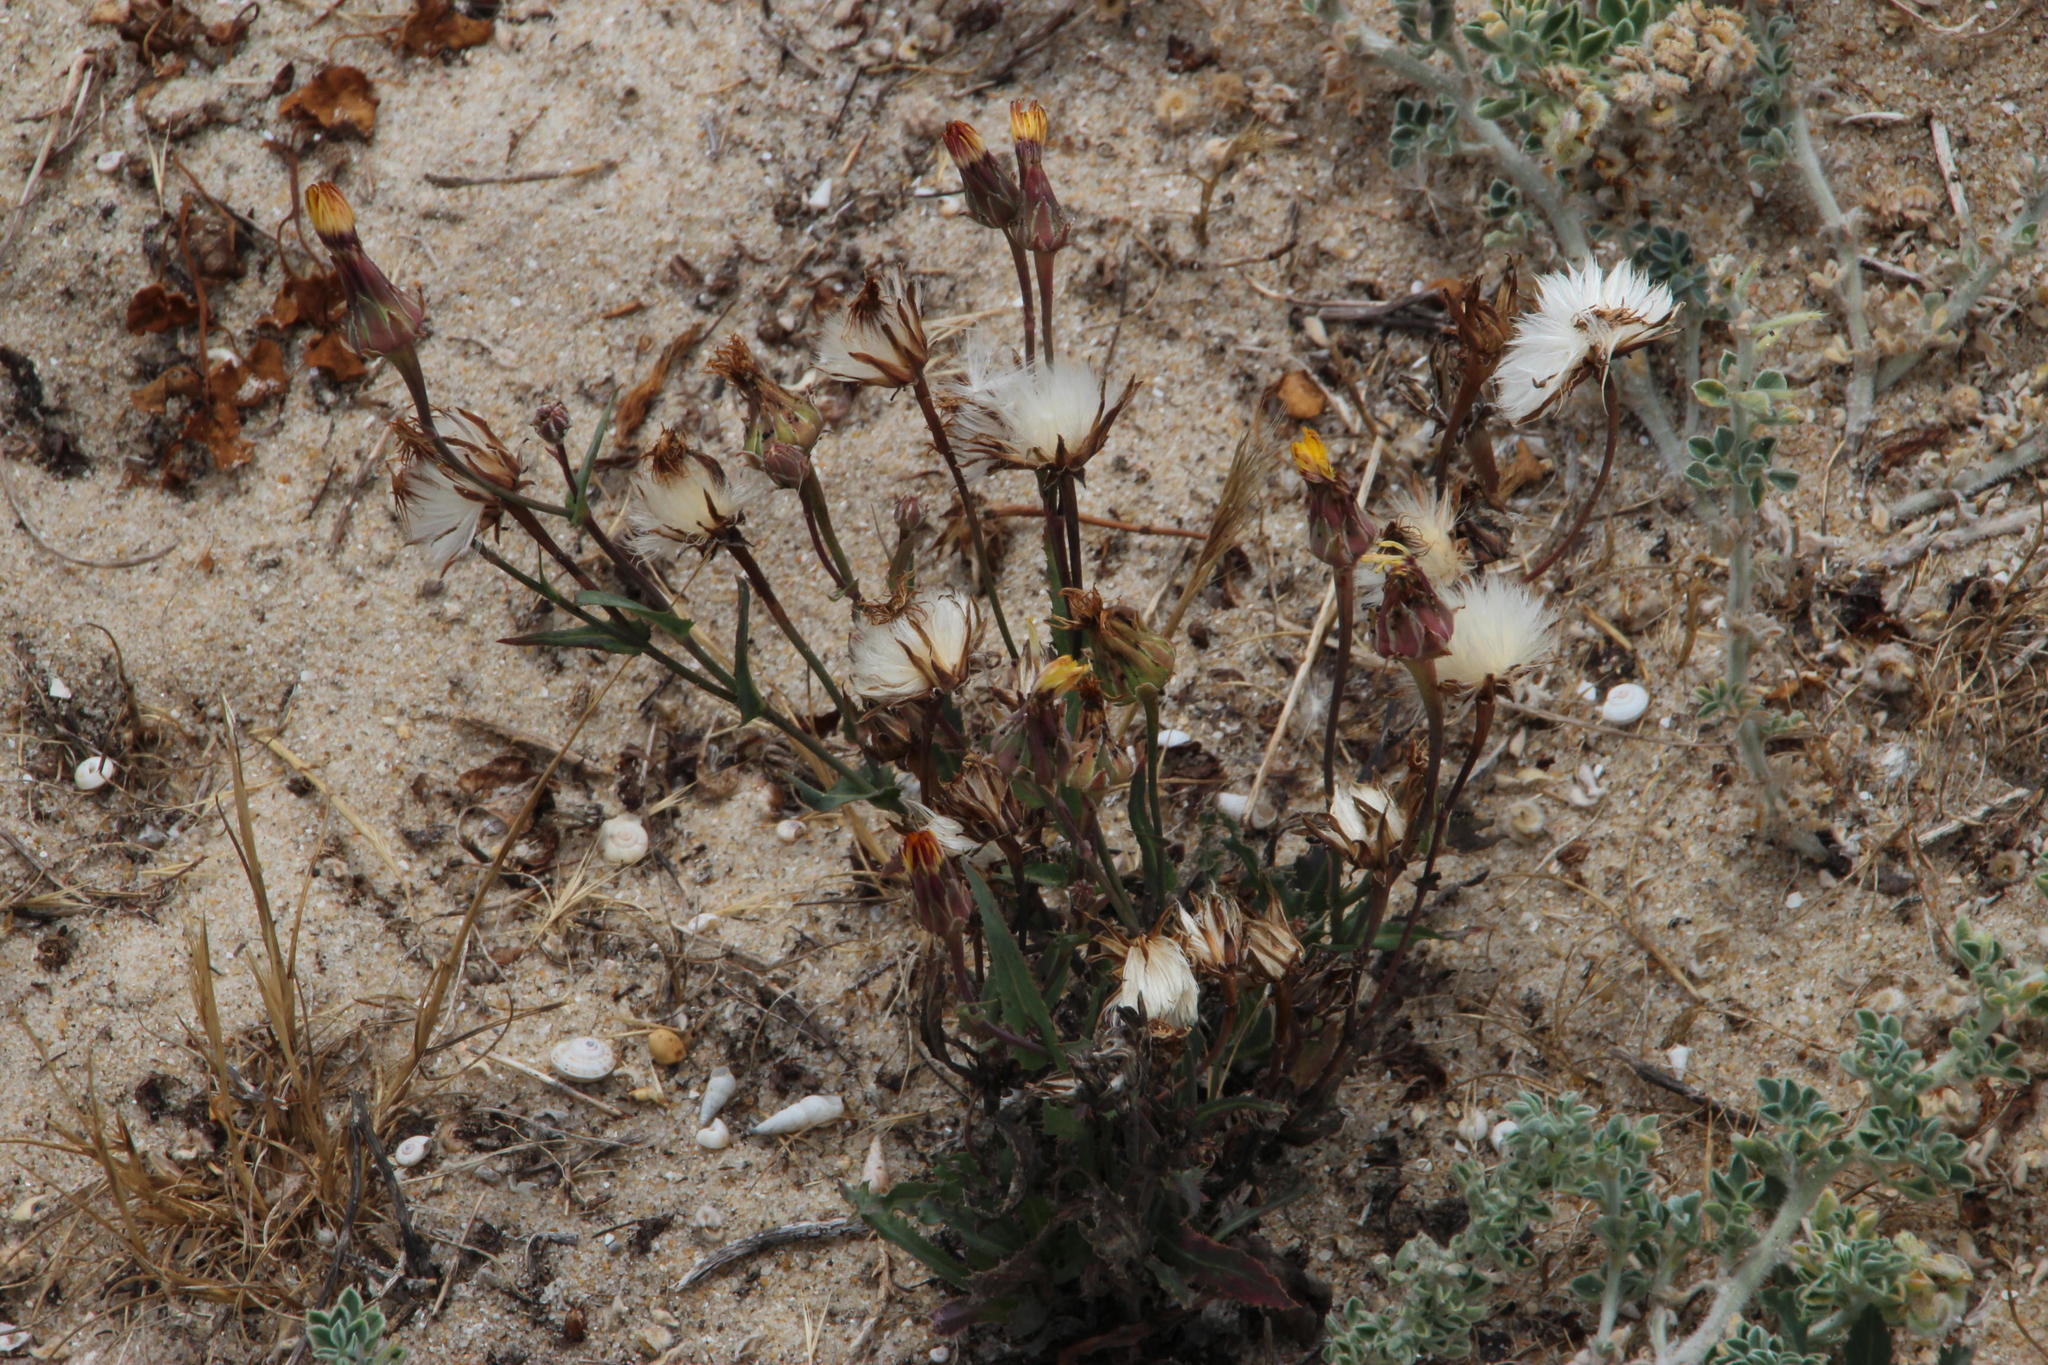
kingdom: Plantae
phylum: Tracheophyta
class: Magnoliopsida
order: Asterales
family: Asteraceae
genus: Reichardia
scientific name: Reichardia gaditana
